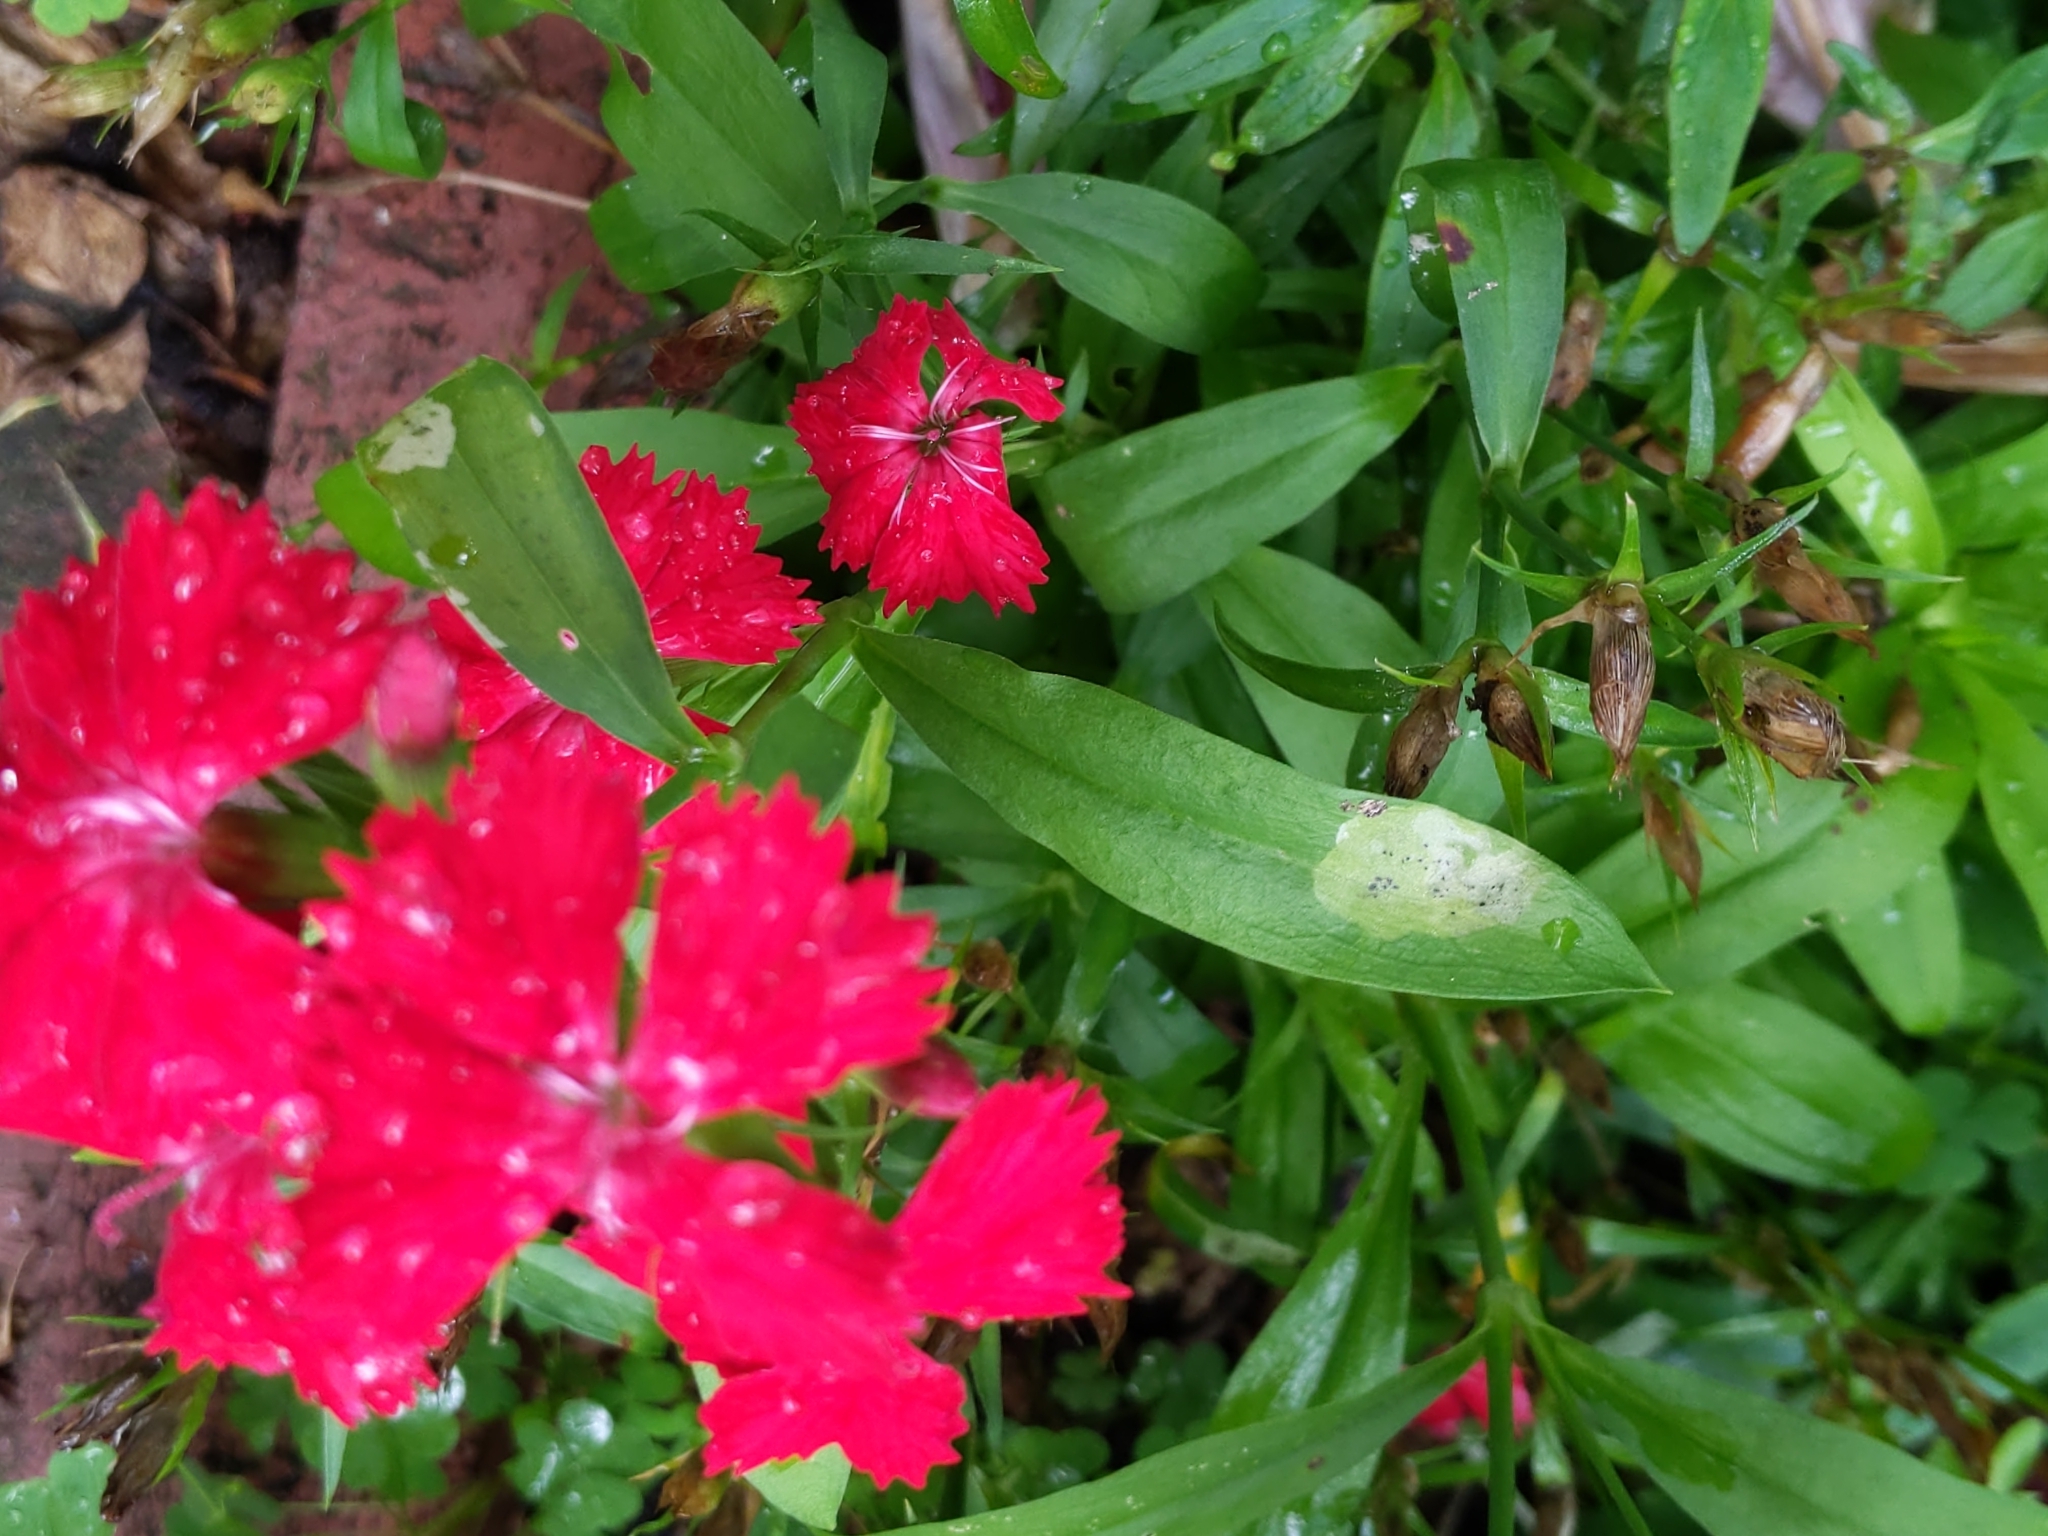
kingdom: Animalia
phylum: Arthropoda
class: Insecta
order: Diptera
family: Agromyzidae
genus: Amauromyza
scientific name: Amauromyza flavifrons
